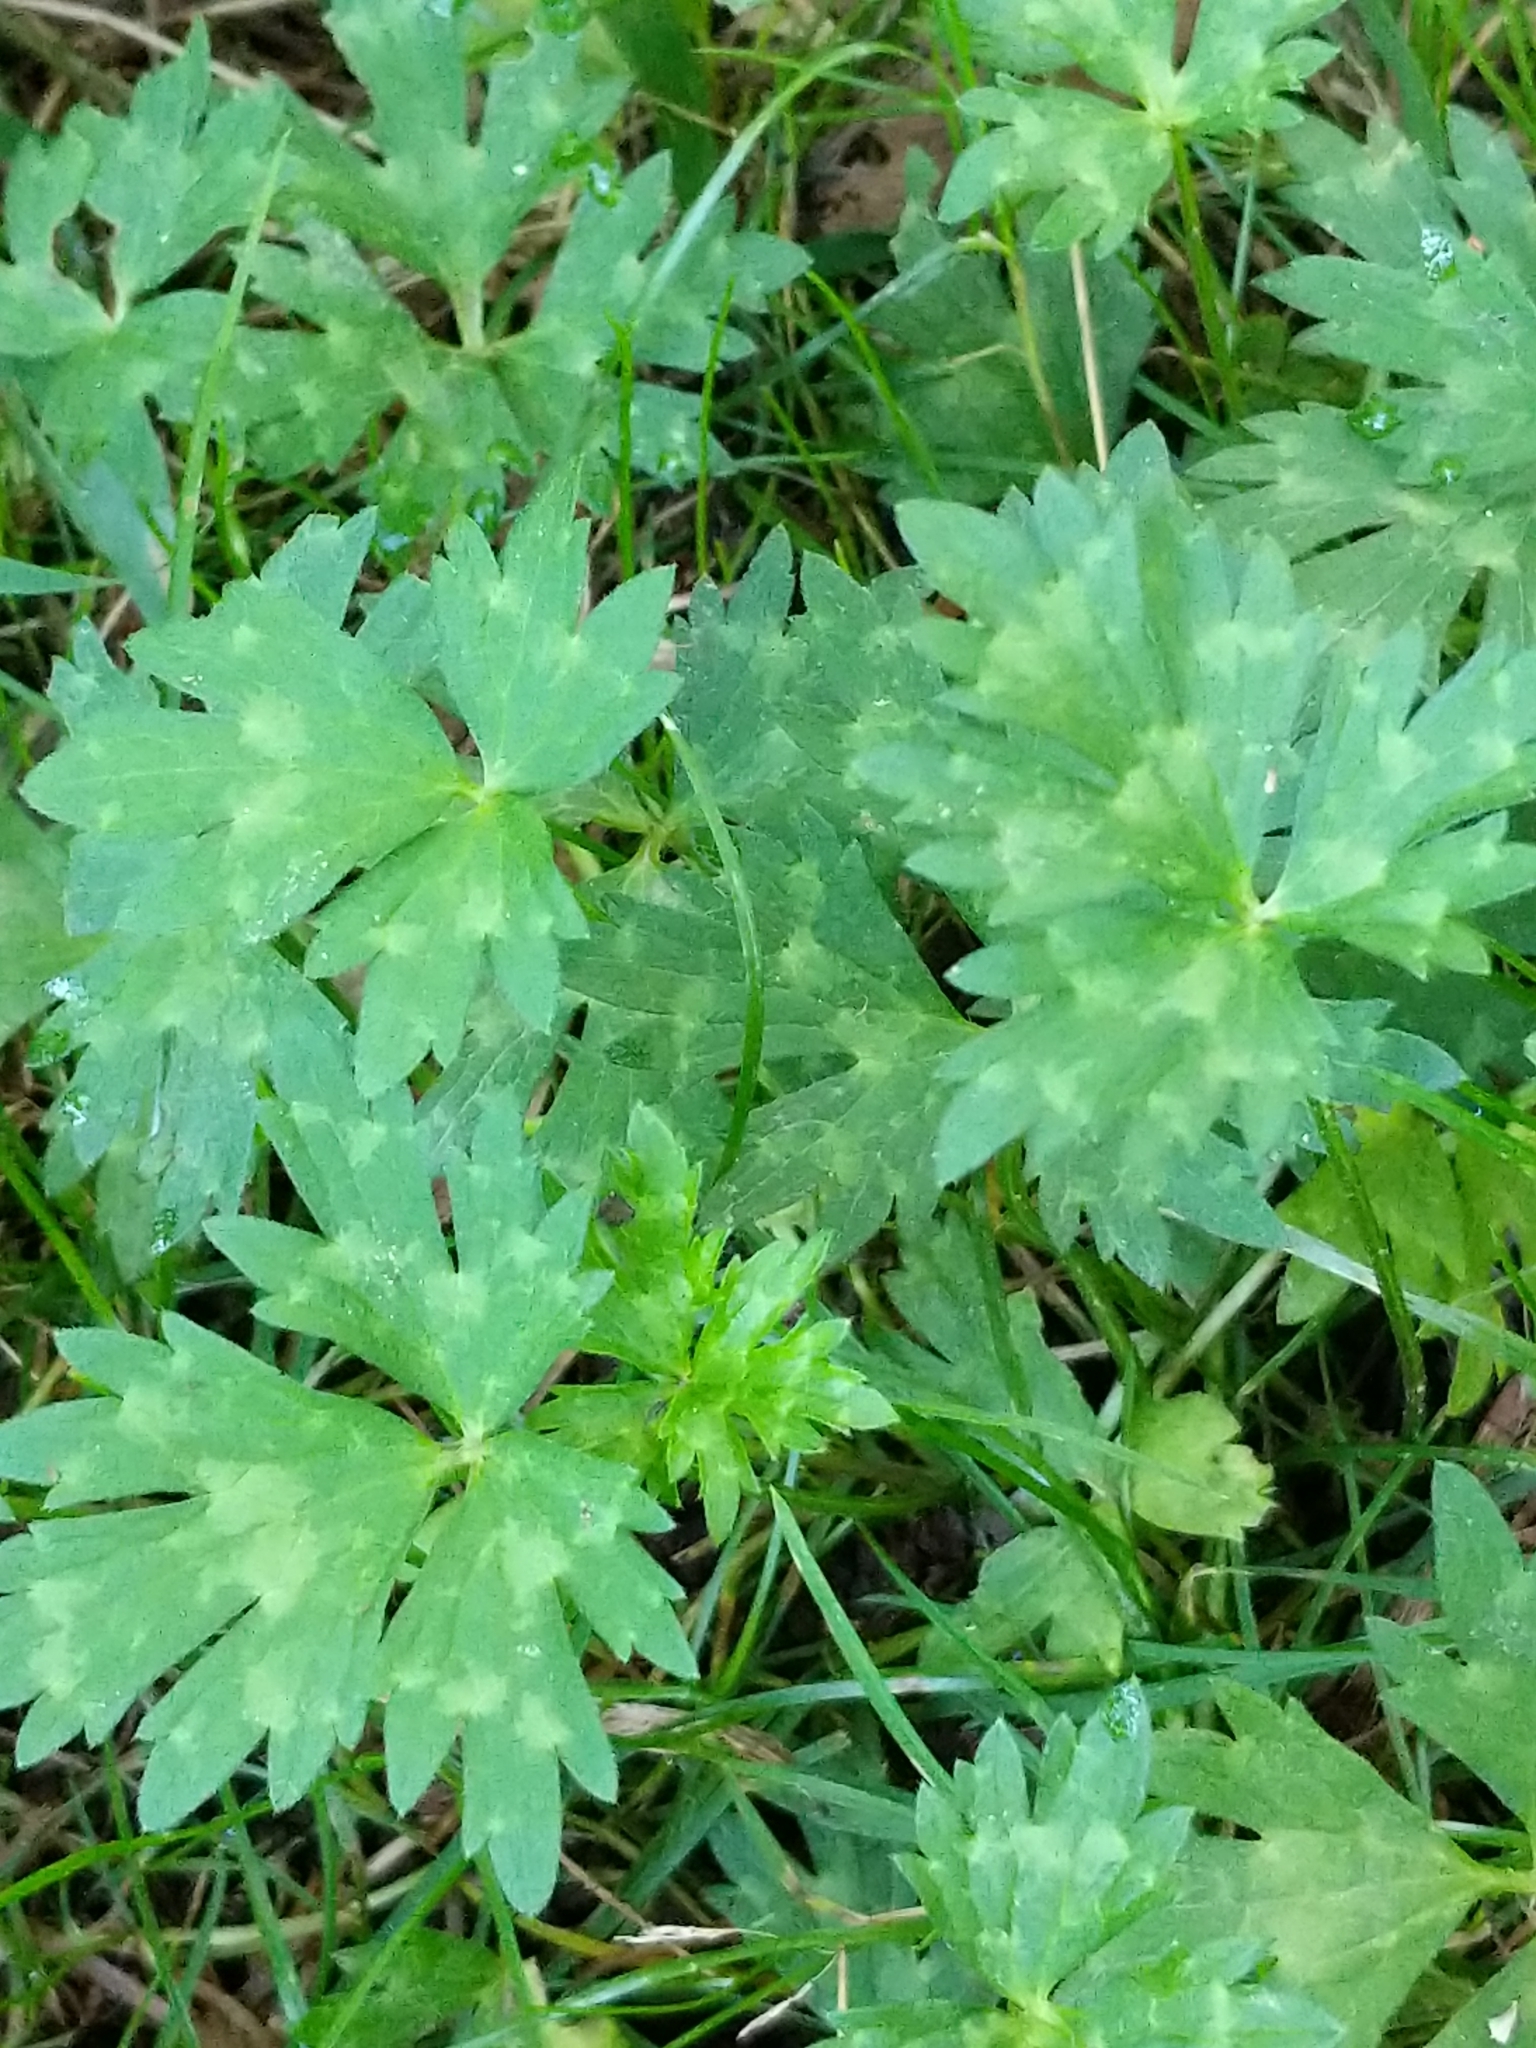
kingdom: Plantae
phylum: Tracheophyta
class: Magnoliopsida
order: Ranunculales
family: Ranunculaceae
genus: Ranunculus
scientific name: Ranunculus repens
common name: Creeping buttercup
